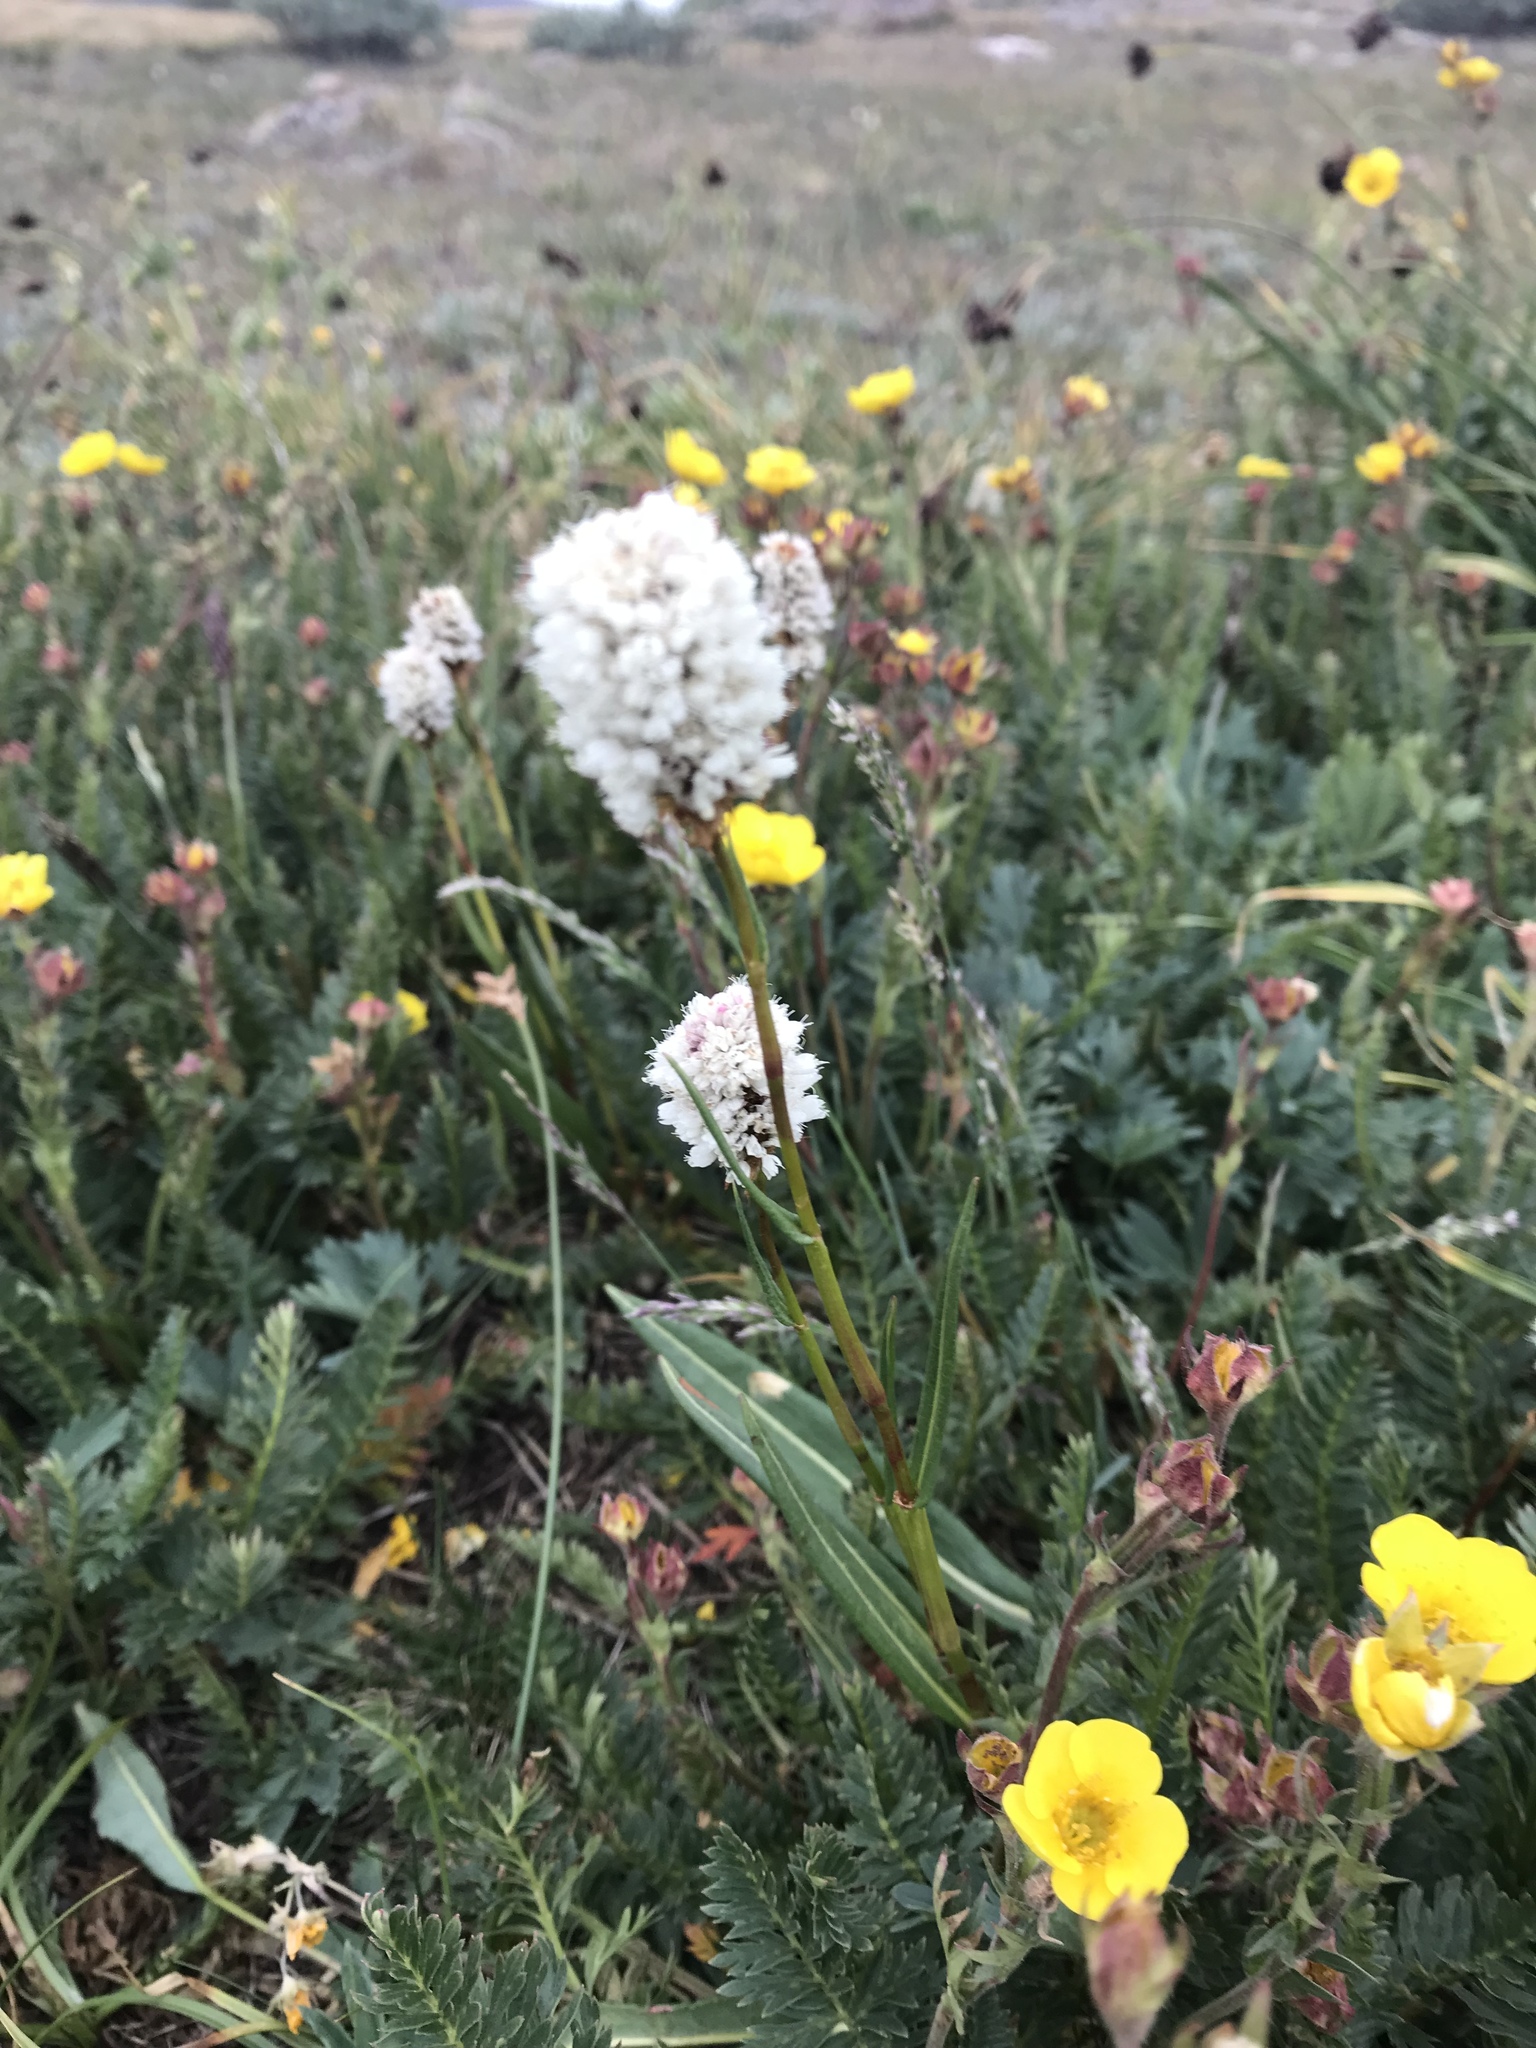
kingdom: Plantae
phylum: Tracheophyta
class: Magnoliopsida
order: Rosales
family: Rosaceae
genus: Geum
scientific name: Geum rossii
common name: Alpine avens
